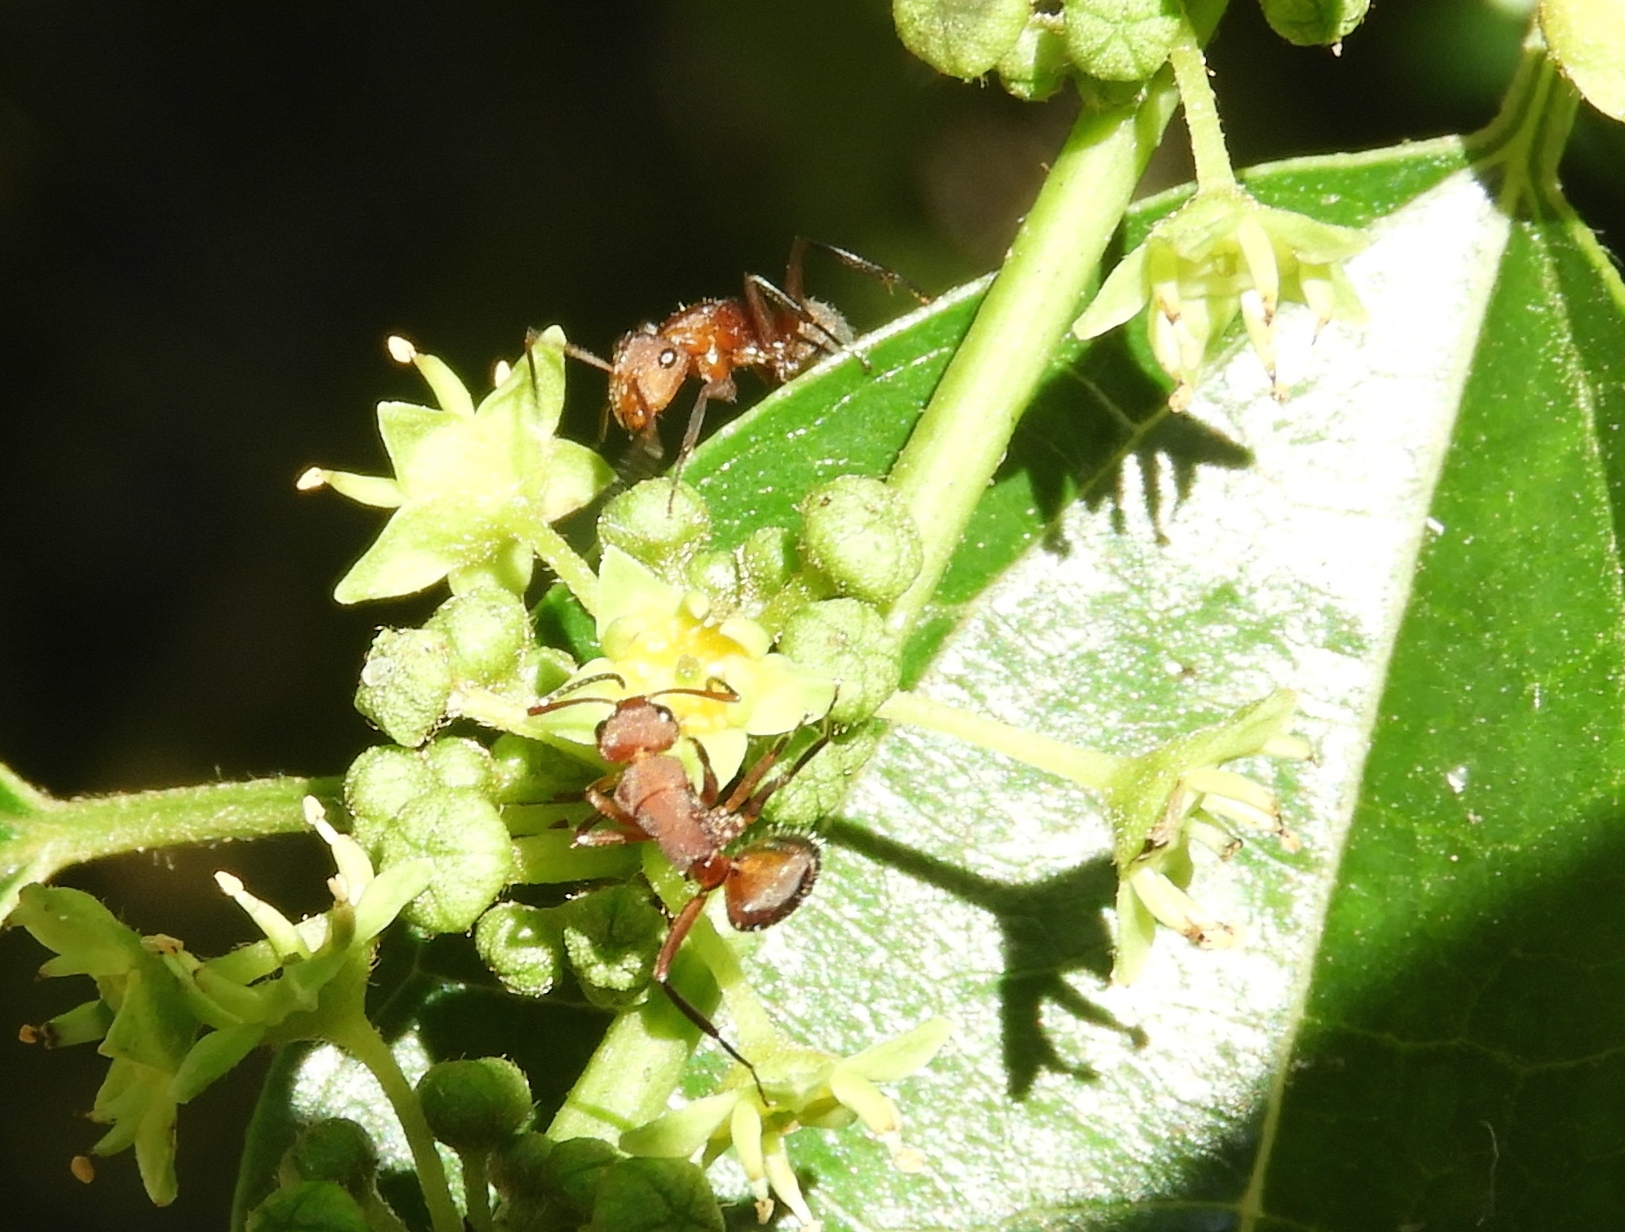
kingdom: Animalia
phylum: Arthropoda
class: Insecta
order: Hymenoptera
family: Formicidae
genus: Camponotus
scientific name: Camponotus rectangularis
